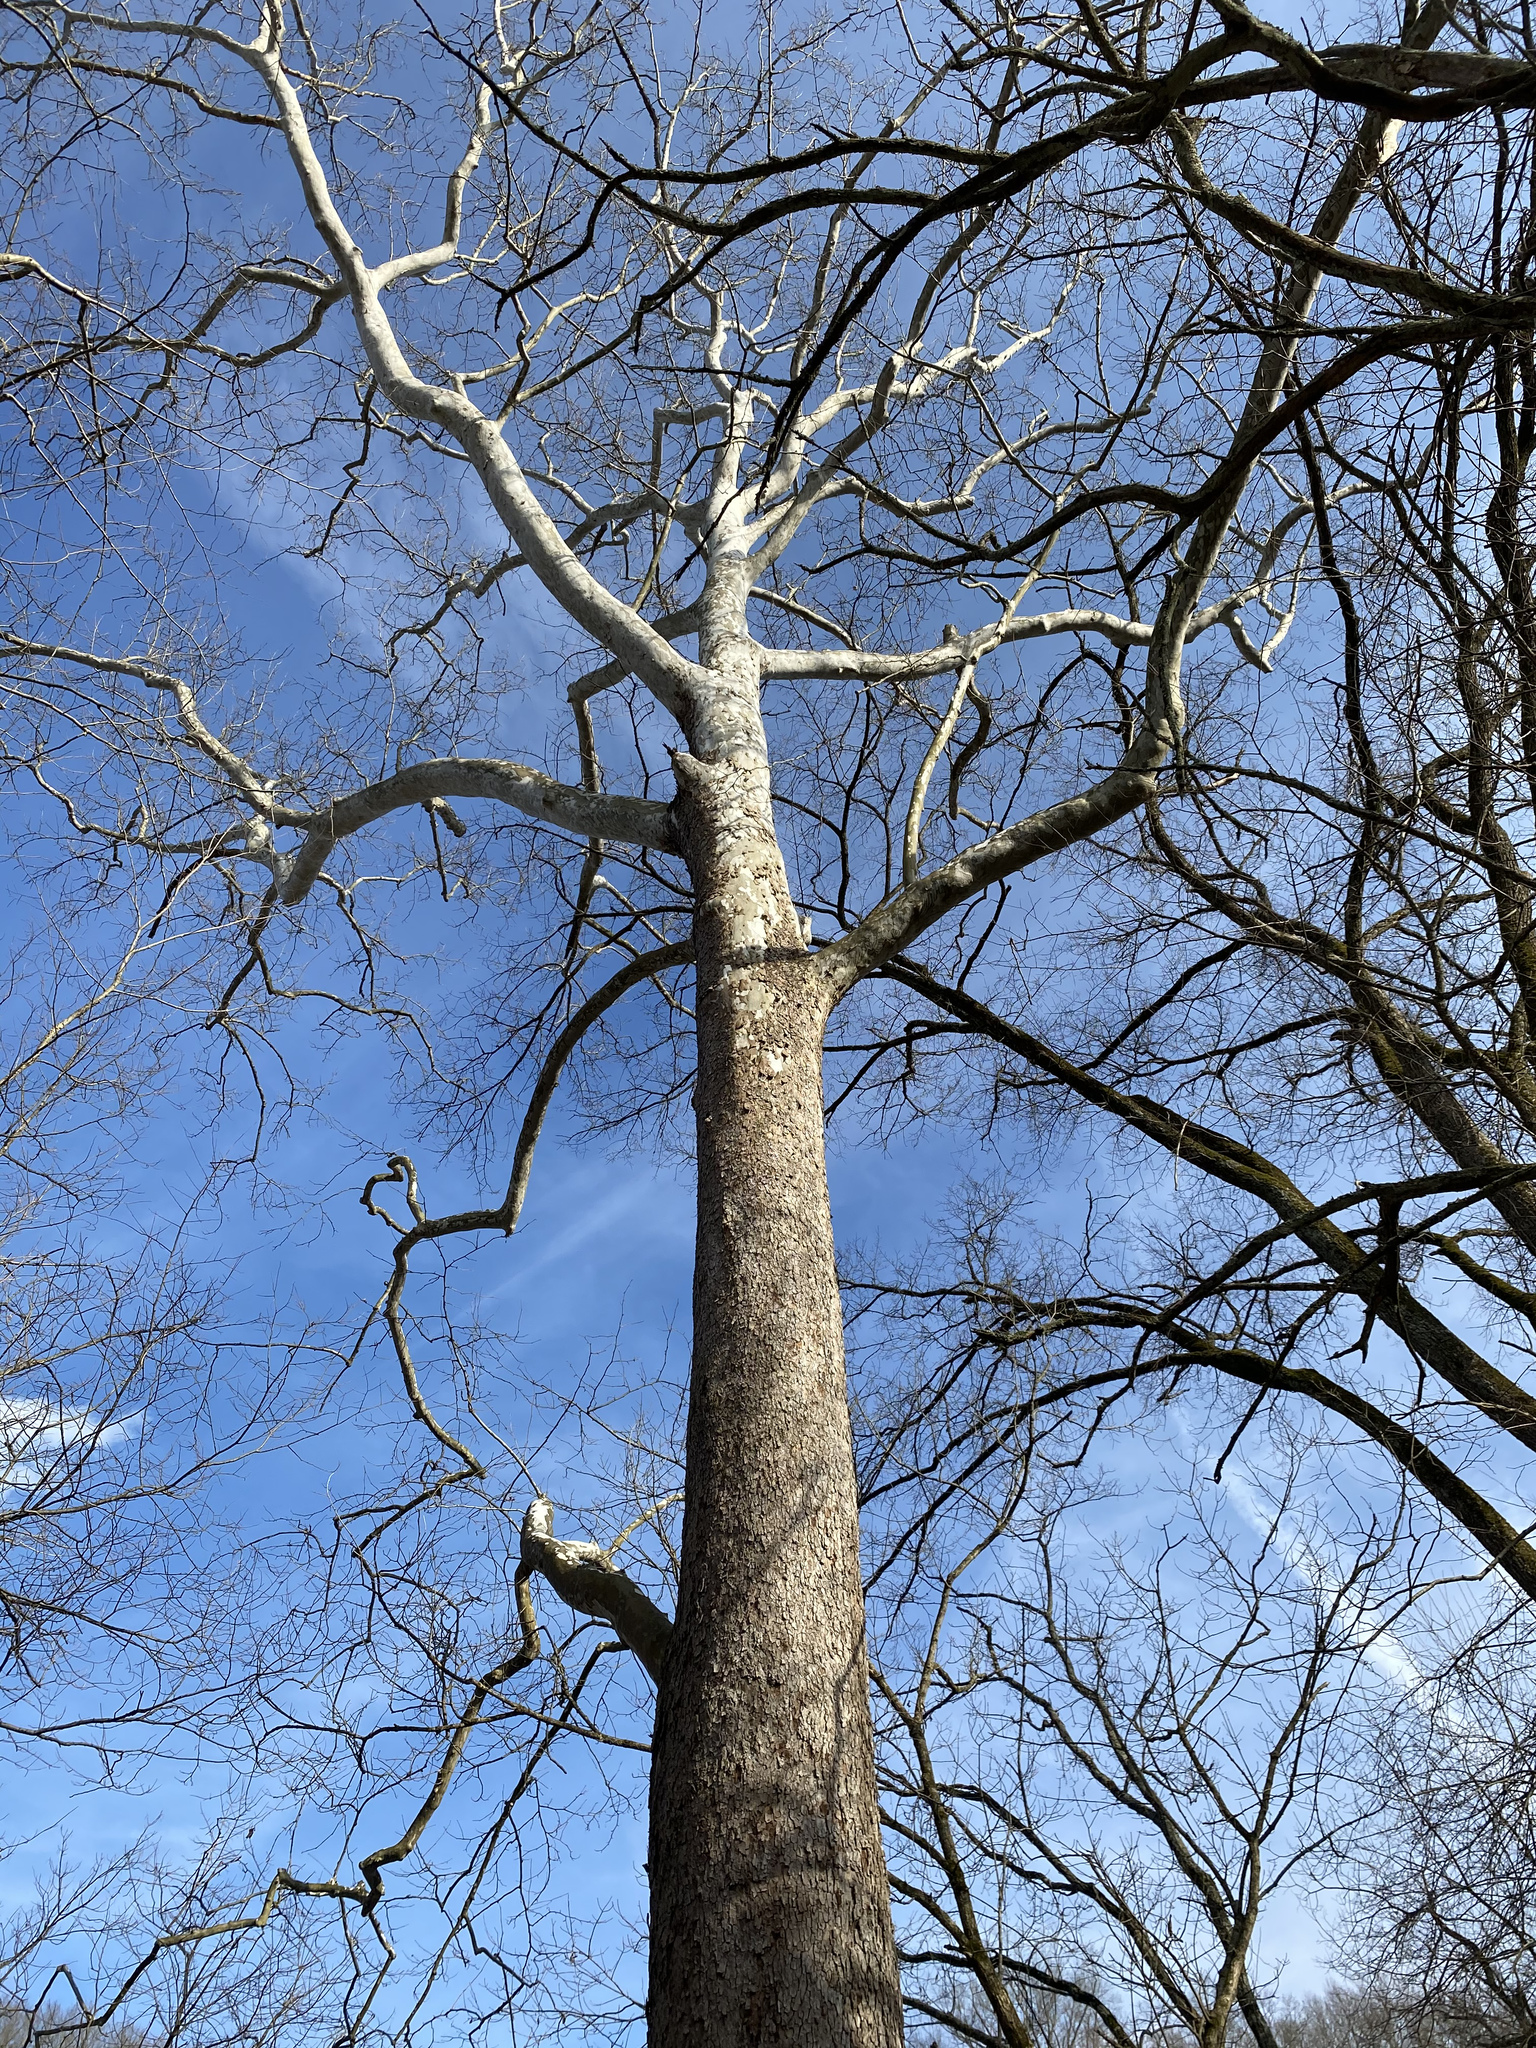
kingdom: Plantae
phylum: Tracheophyta
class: Magnoliopsida
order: Proteales
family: Platanaceae
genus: Platanus
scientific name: Platanus occidentalis
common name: American sycamore
